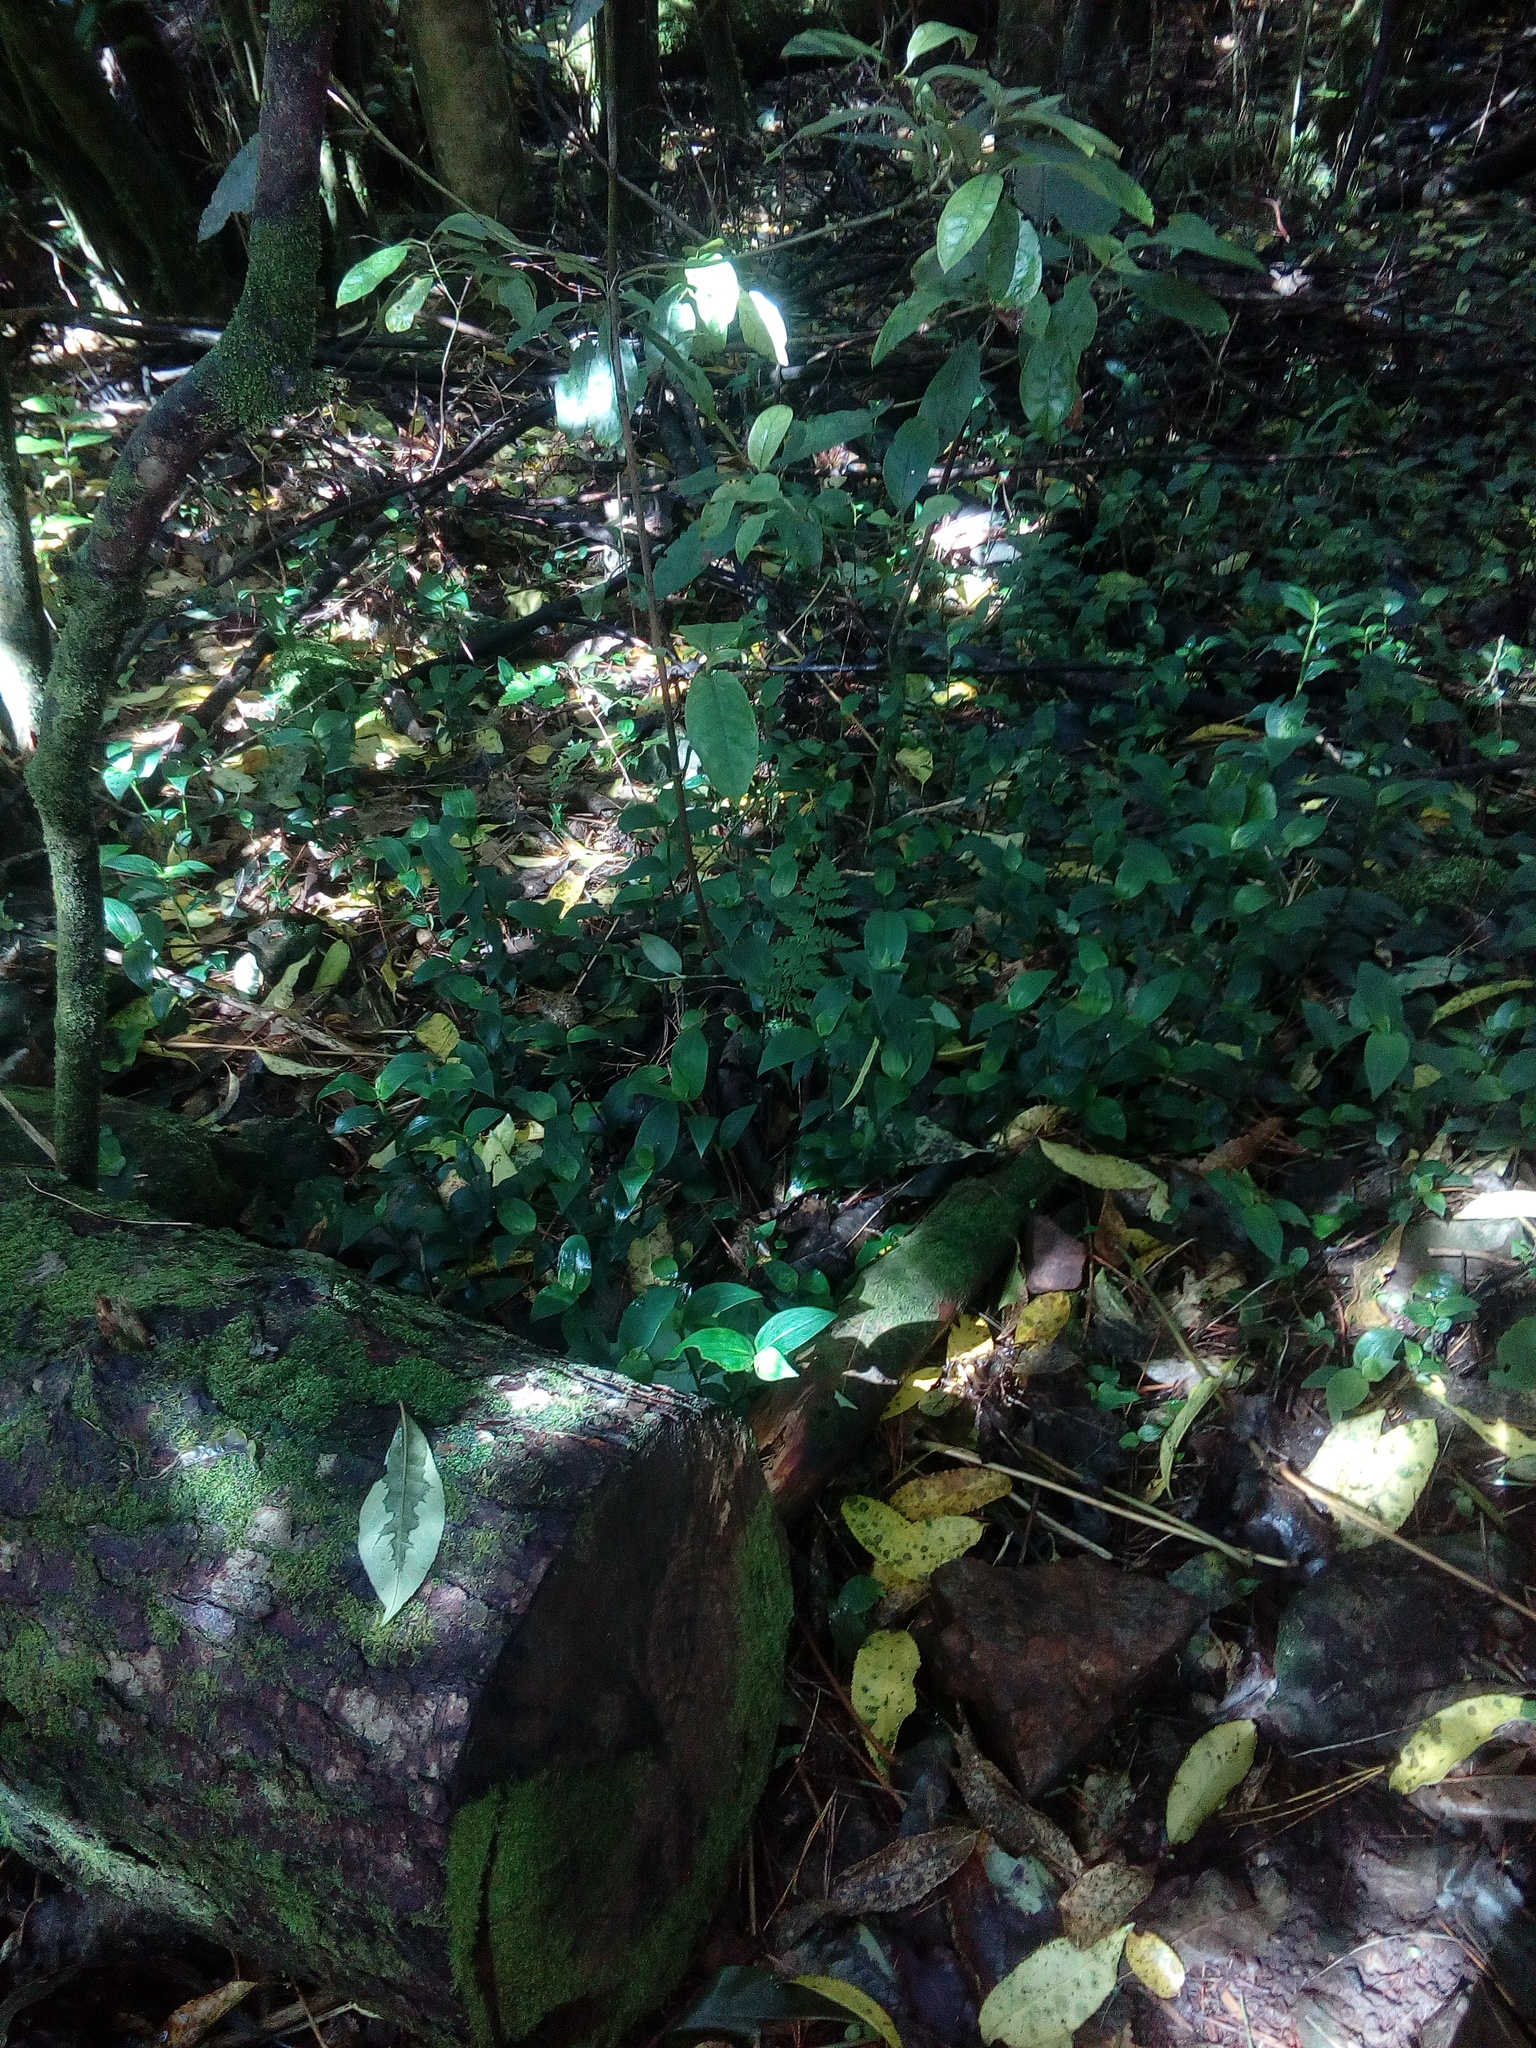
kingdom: Plantae
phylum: Tracheophyta
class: Liliopsida
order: Commelinales
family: Commelinaceae
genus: Tradescantia
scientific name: Tradescantia fluminensis
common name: Wandering-jew
